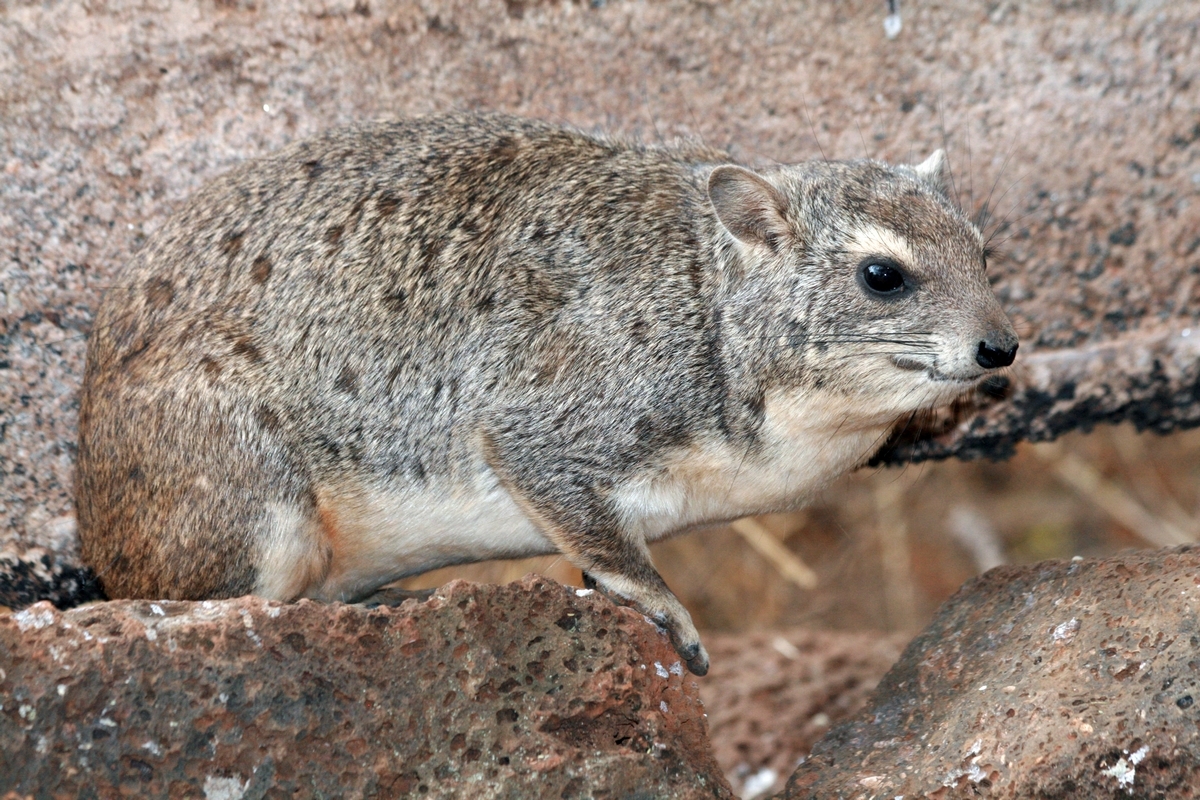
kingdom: Animalia
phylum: Chordata
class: Mammalia
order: Hyracoidea
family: Procaviidae
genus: Heterohyrax
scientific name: Heterohyrax brucei
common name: Bush hyrax
